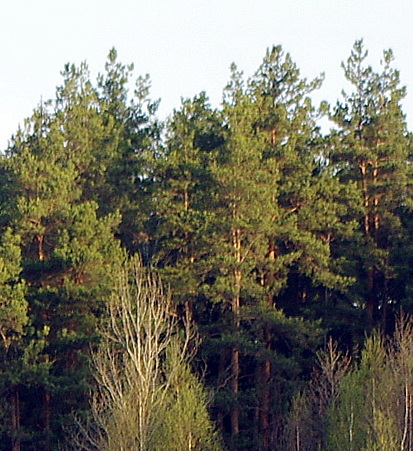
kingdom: Plantae
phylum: Tracheophyta
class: Pinopsida
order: Pinales
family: Pinaceae
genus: Pinus
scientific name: Pinus sylvestris
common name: Scots pine
